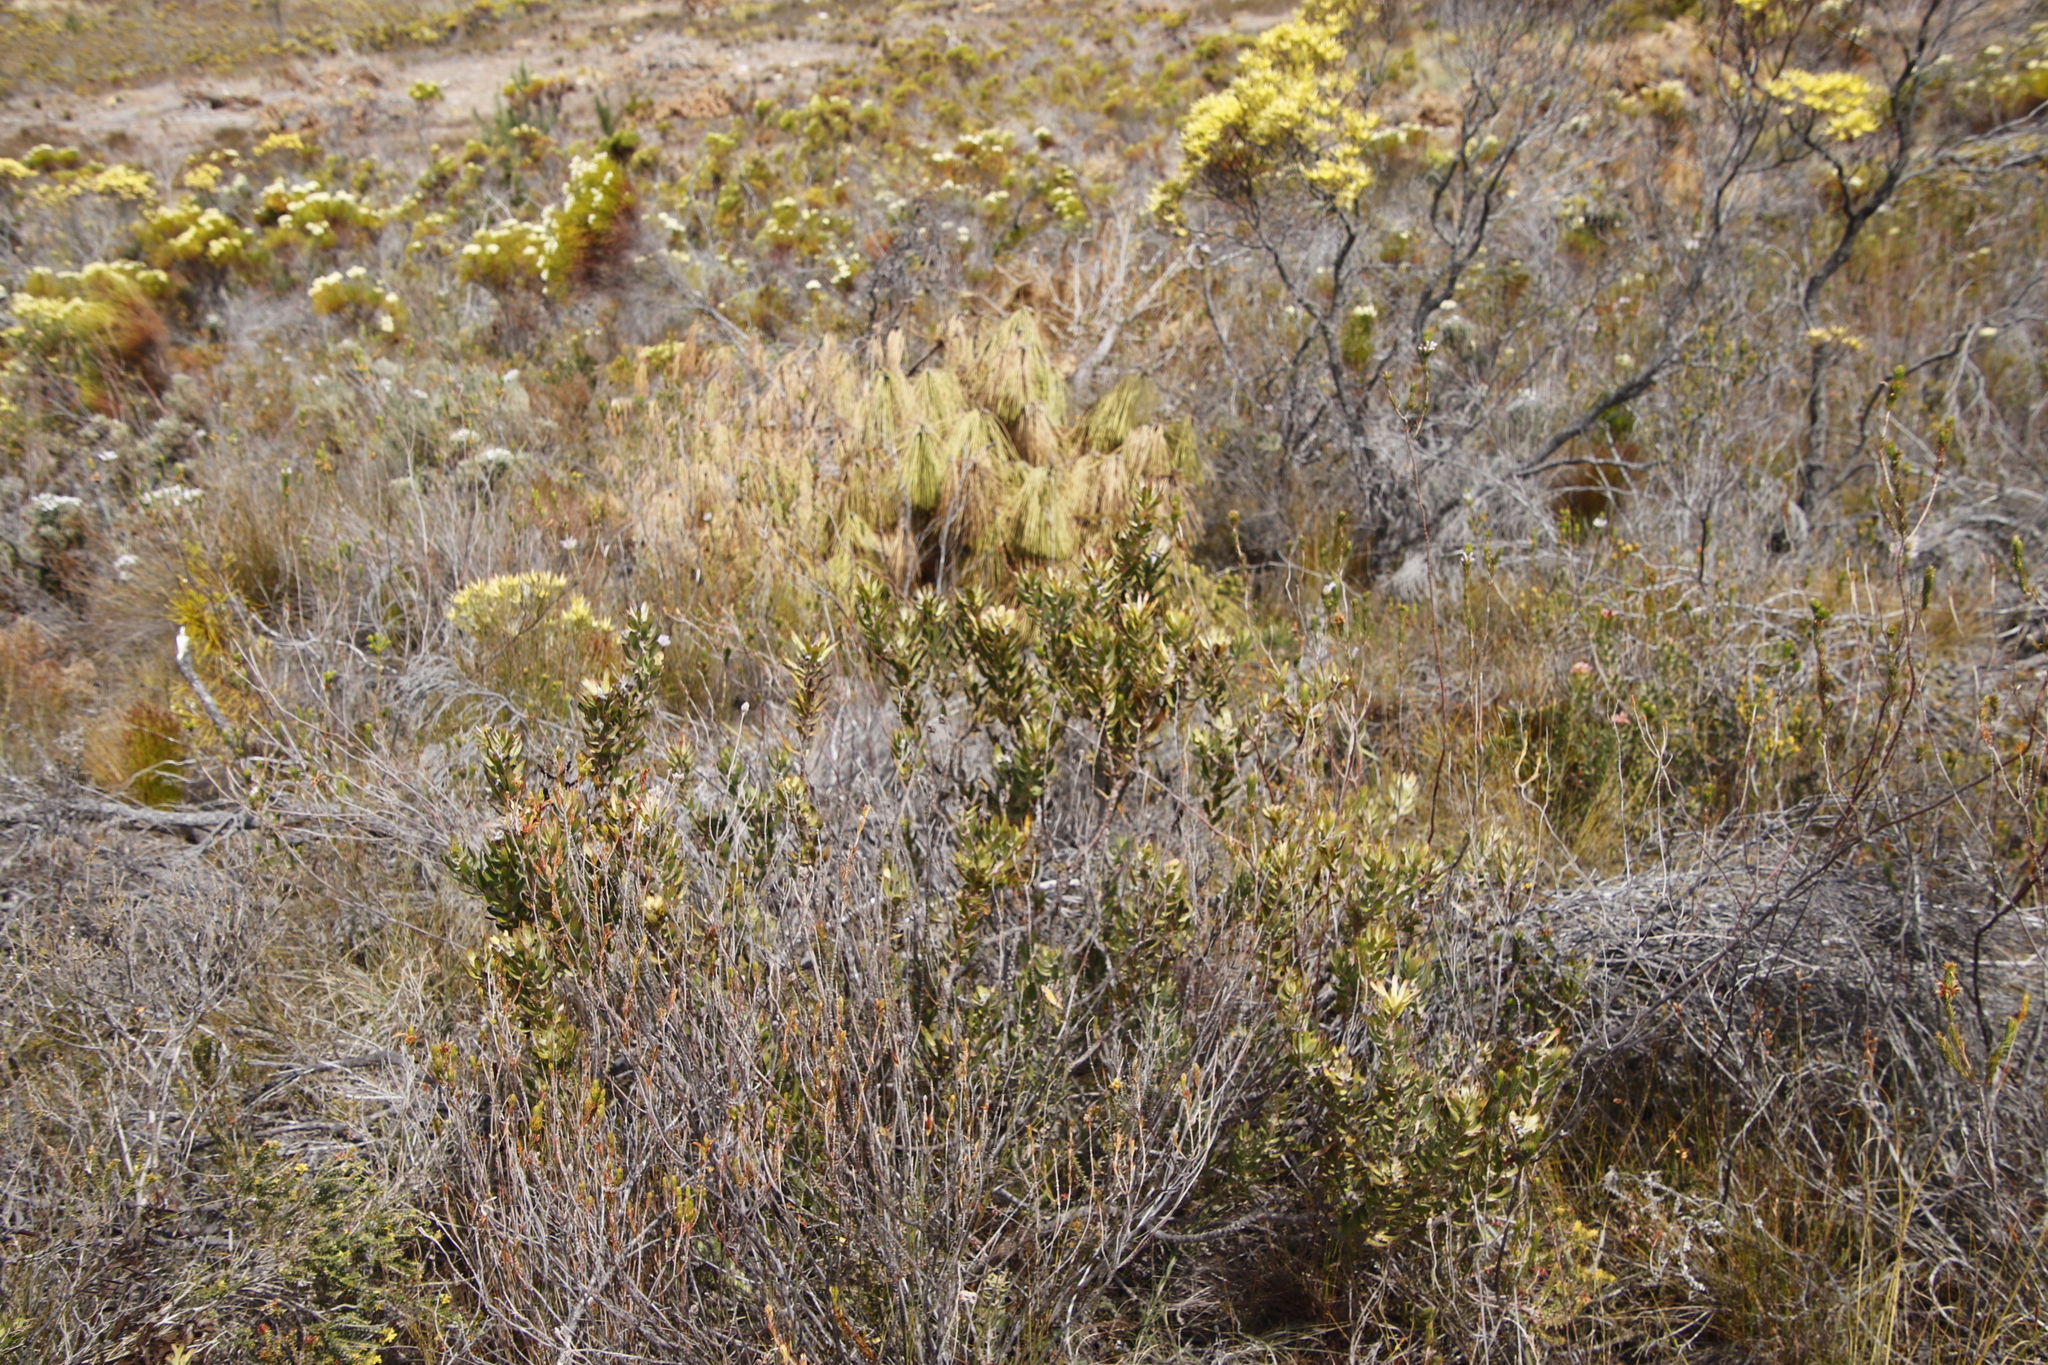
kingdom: Plantae
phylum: Tracheophyta
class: Magnoliopsida
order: Proteales
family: Proteaceae
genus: Mimetes
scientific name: Mimetes cucullatus
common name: Common pagoda
